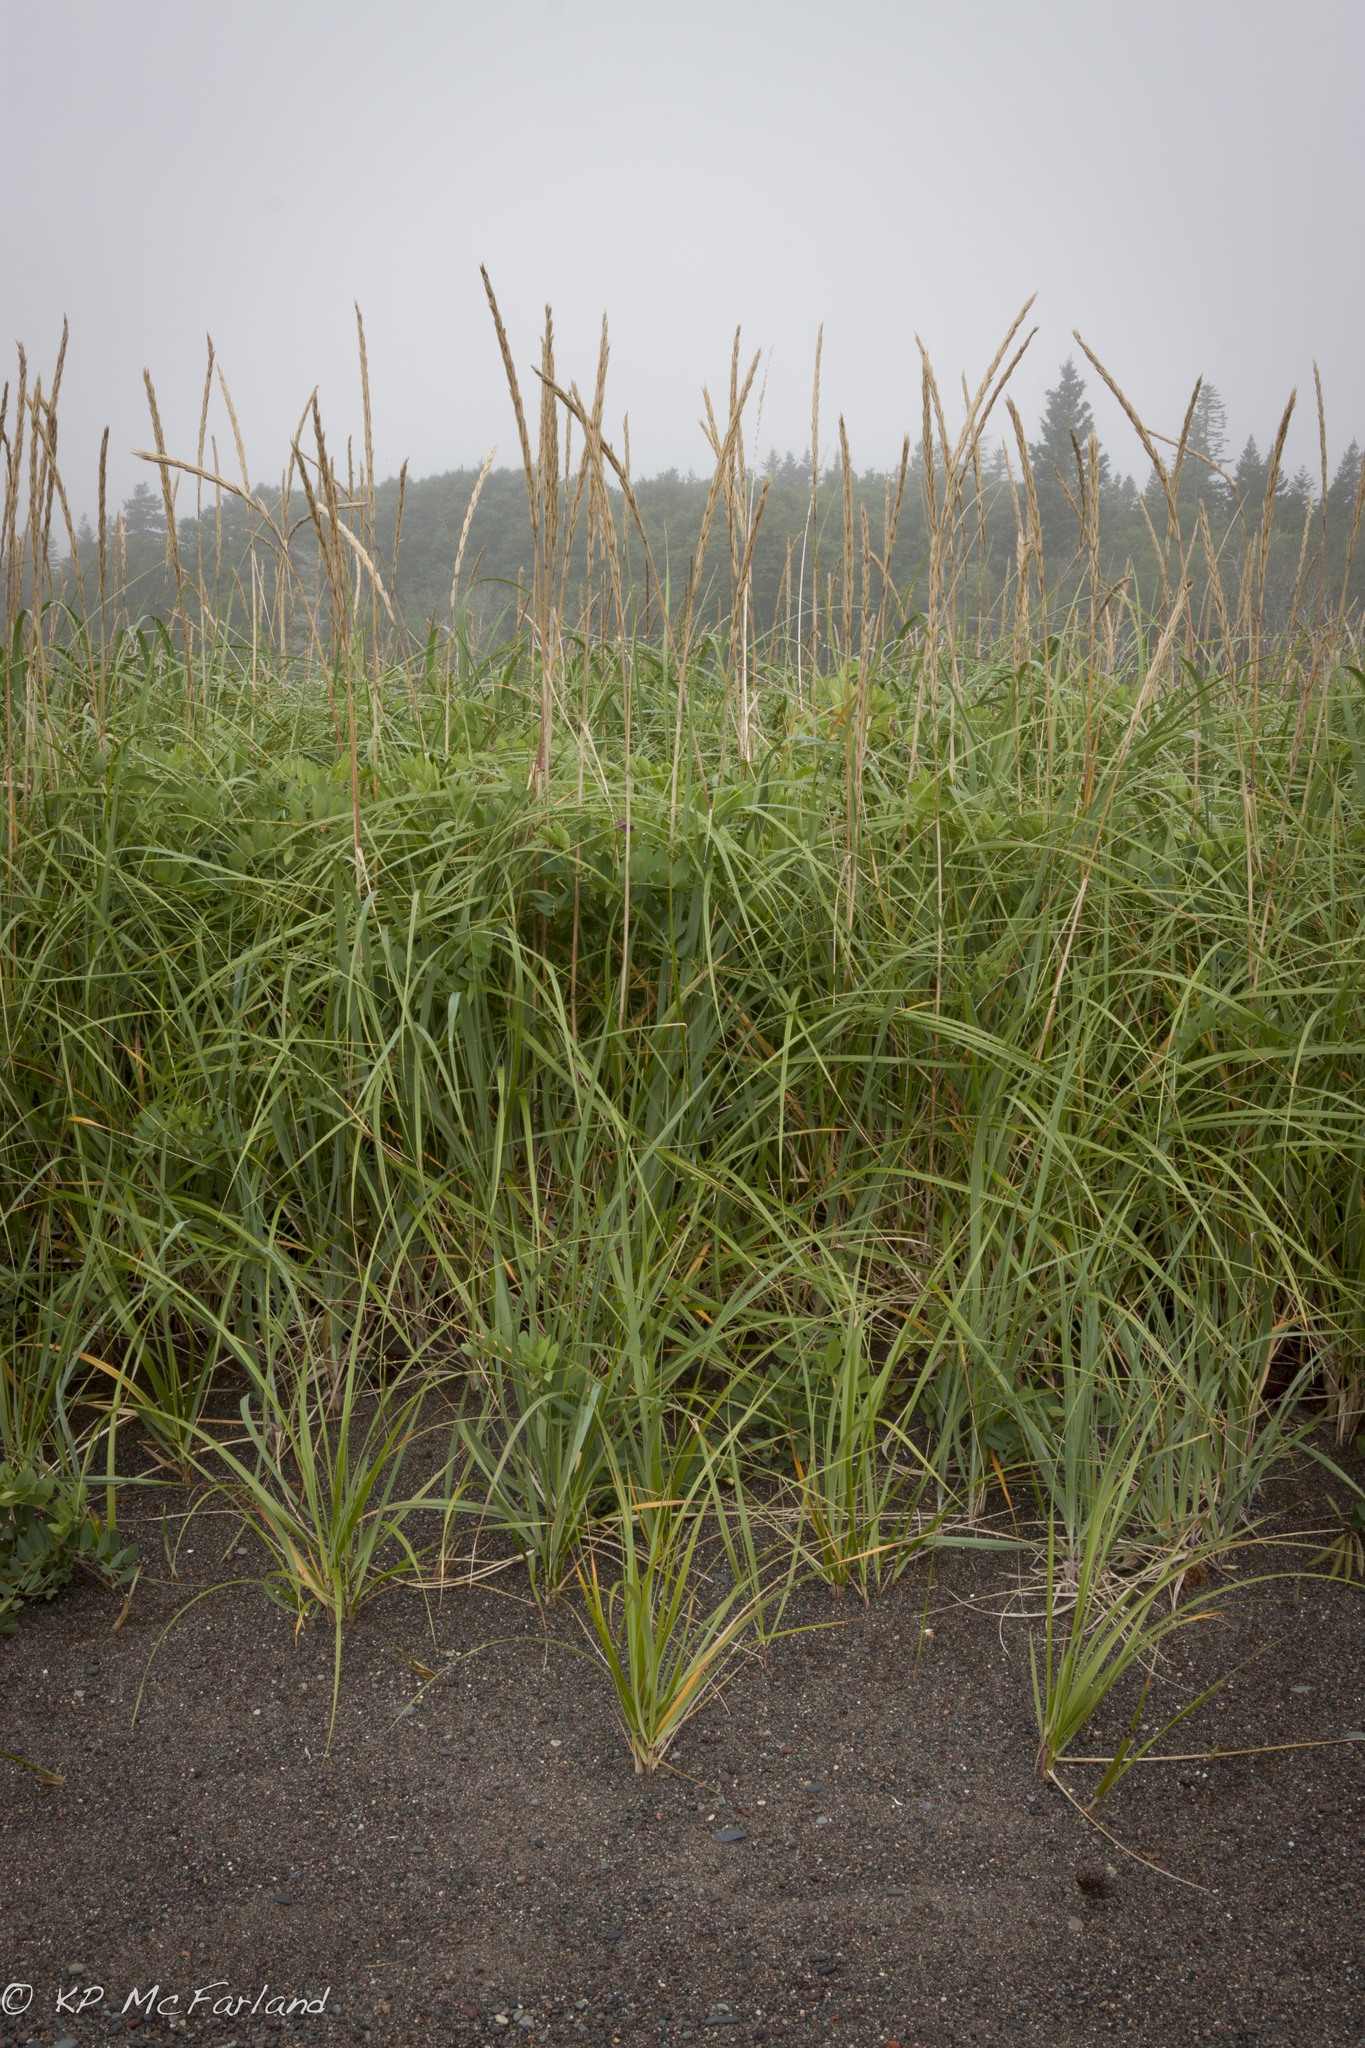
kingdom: Plantae
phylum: Tracheophyta
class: Liliopsida
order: Poales
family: Poaceae
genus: Calamagrostis
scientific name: Calamagrostis breviligulata
